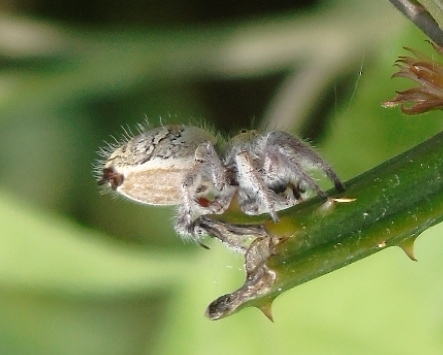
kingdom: Animalia
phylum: Arthropoda
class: Arachnida
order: Araneae
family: Salticidae
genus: Phidippus
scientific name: Phidippus pacosauritus
